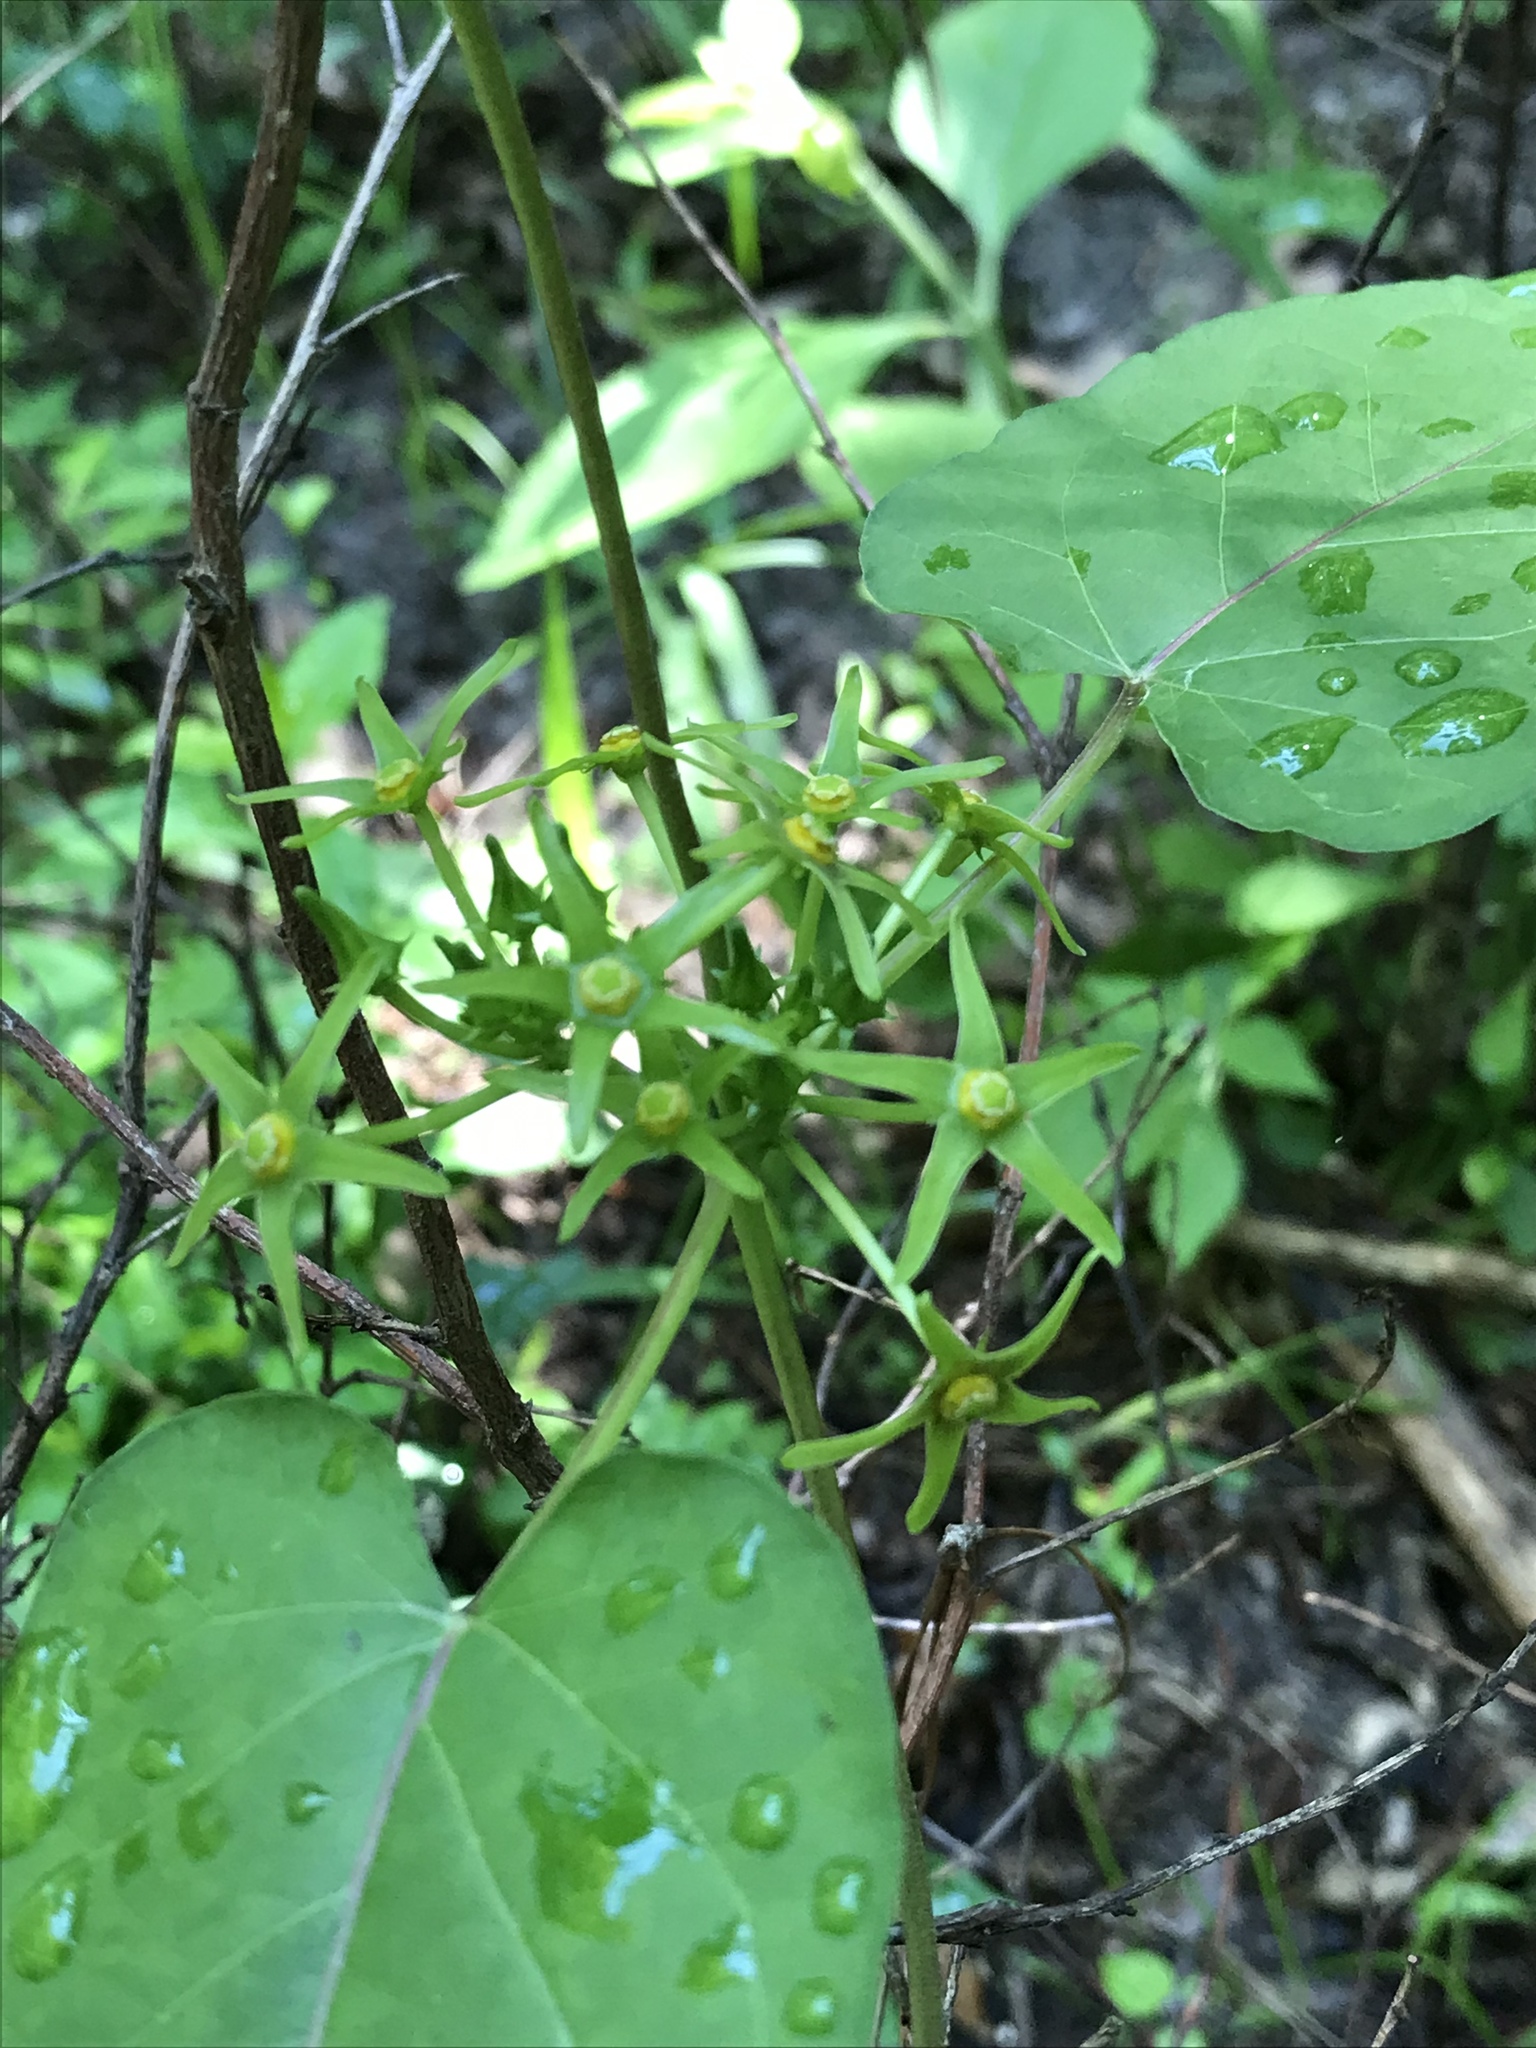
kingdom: Plantae
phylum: Tracheophyta
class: Magnoliopsida
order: Gentianales
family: Apocynaceae
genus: Gonolobus
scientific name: Gonolobus suberosus
